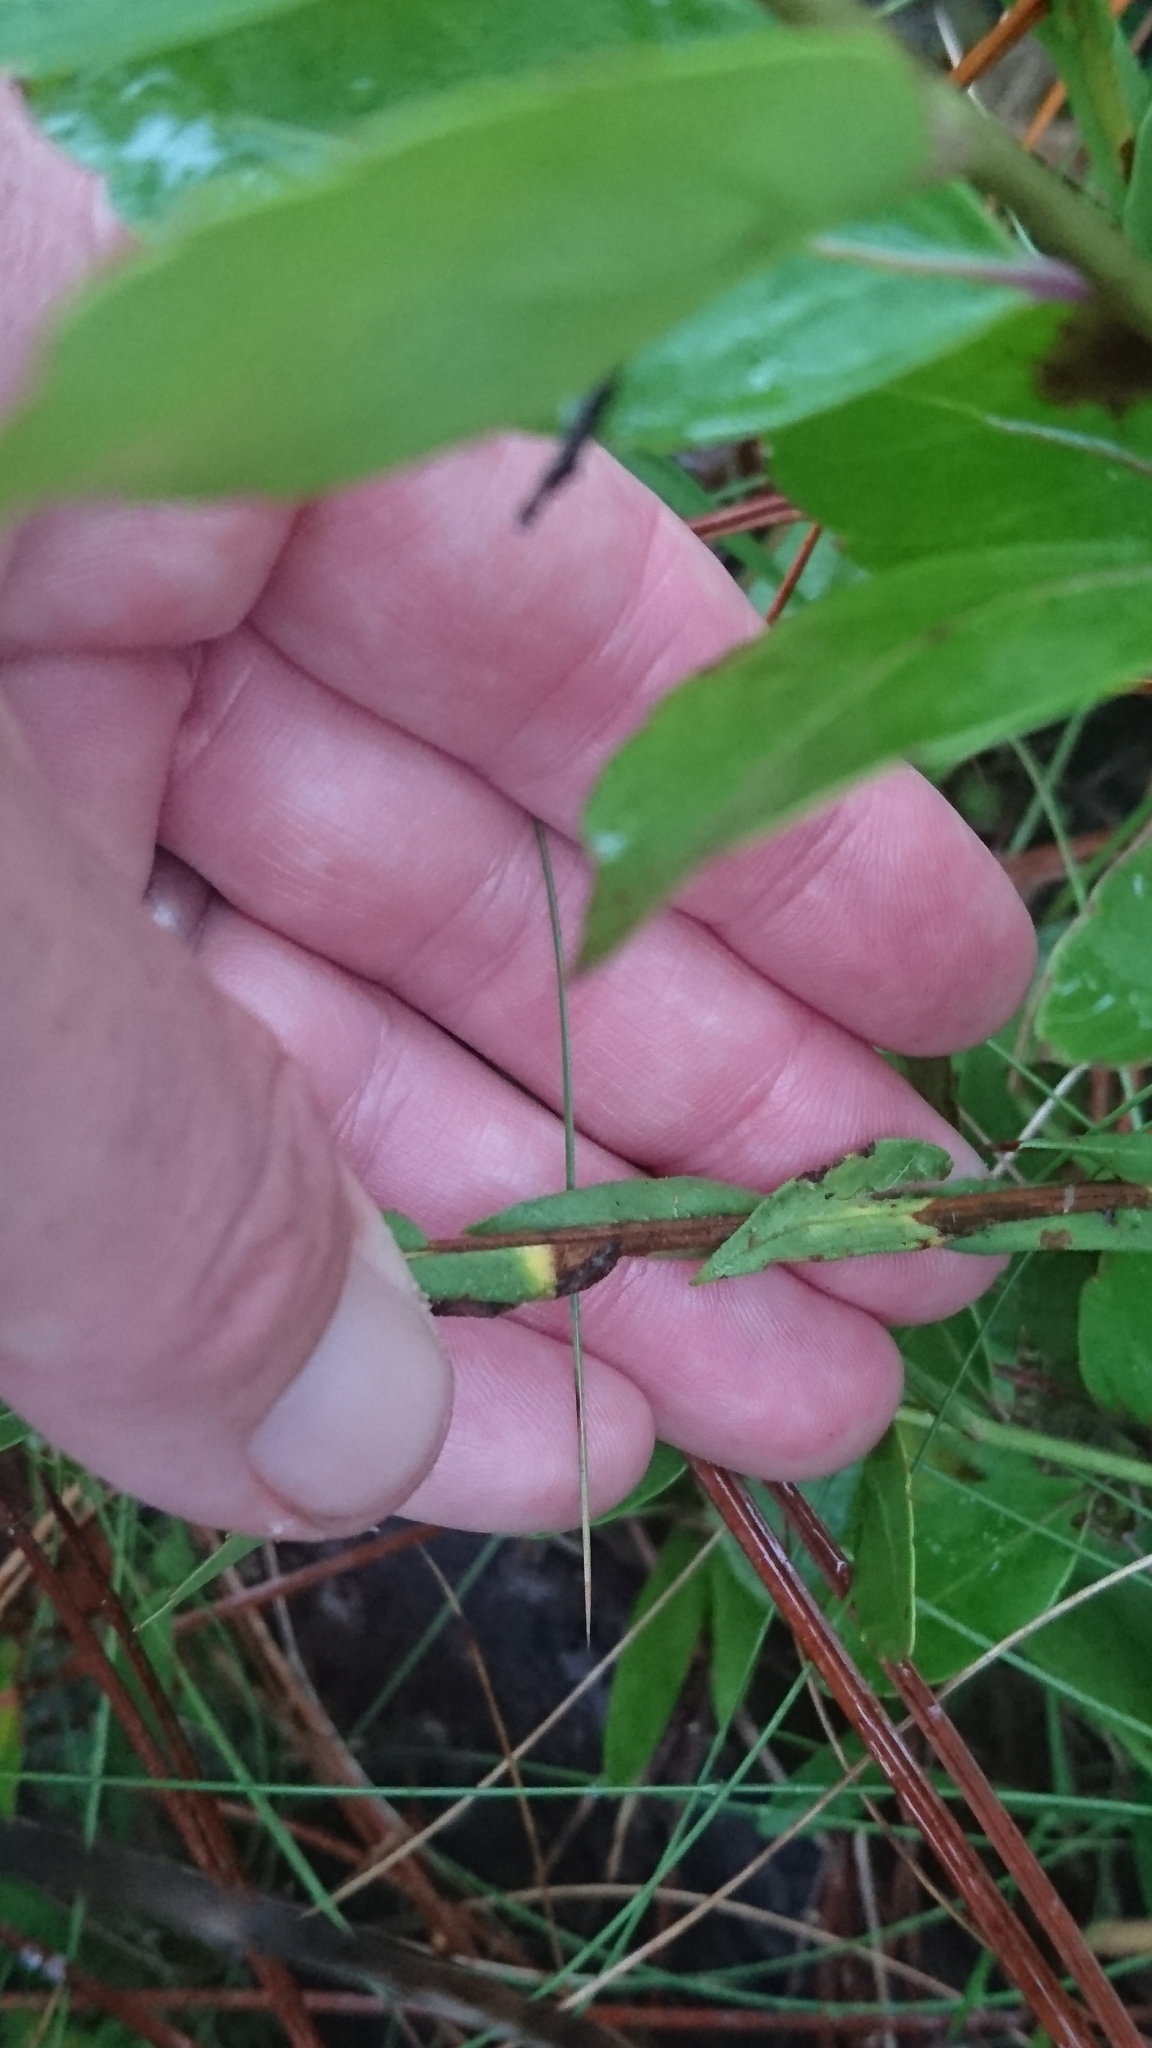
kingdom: Plantae
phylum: Tracheophyta
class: Magnoliopsida
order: Asterales
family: Asteraceae
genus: Symphyotrichum
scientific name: Symphyotrichum adnatum
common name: Scale-leaf aster
